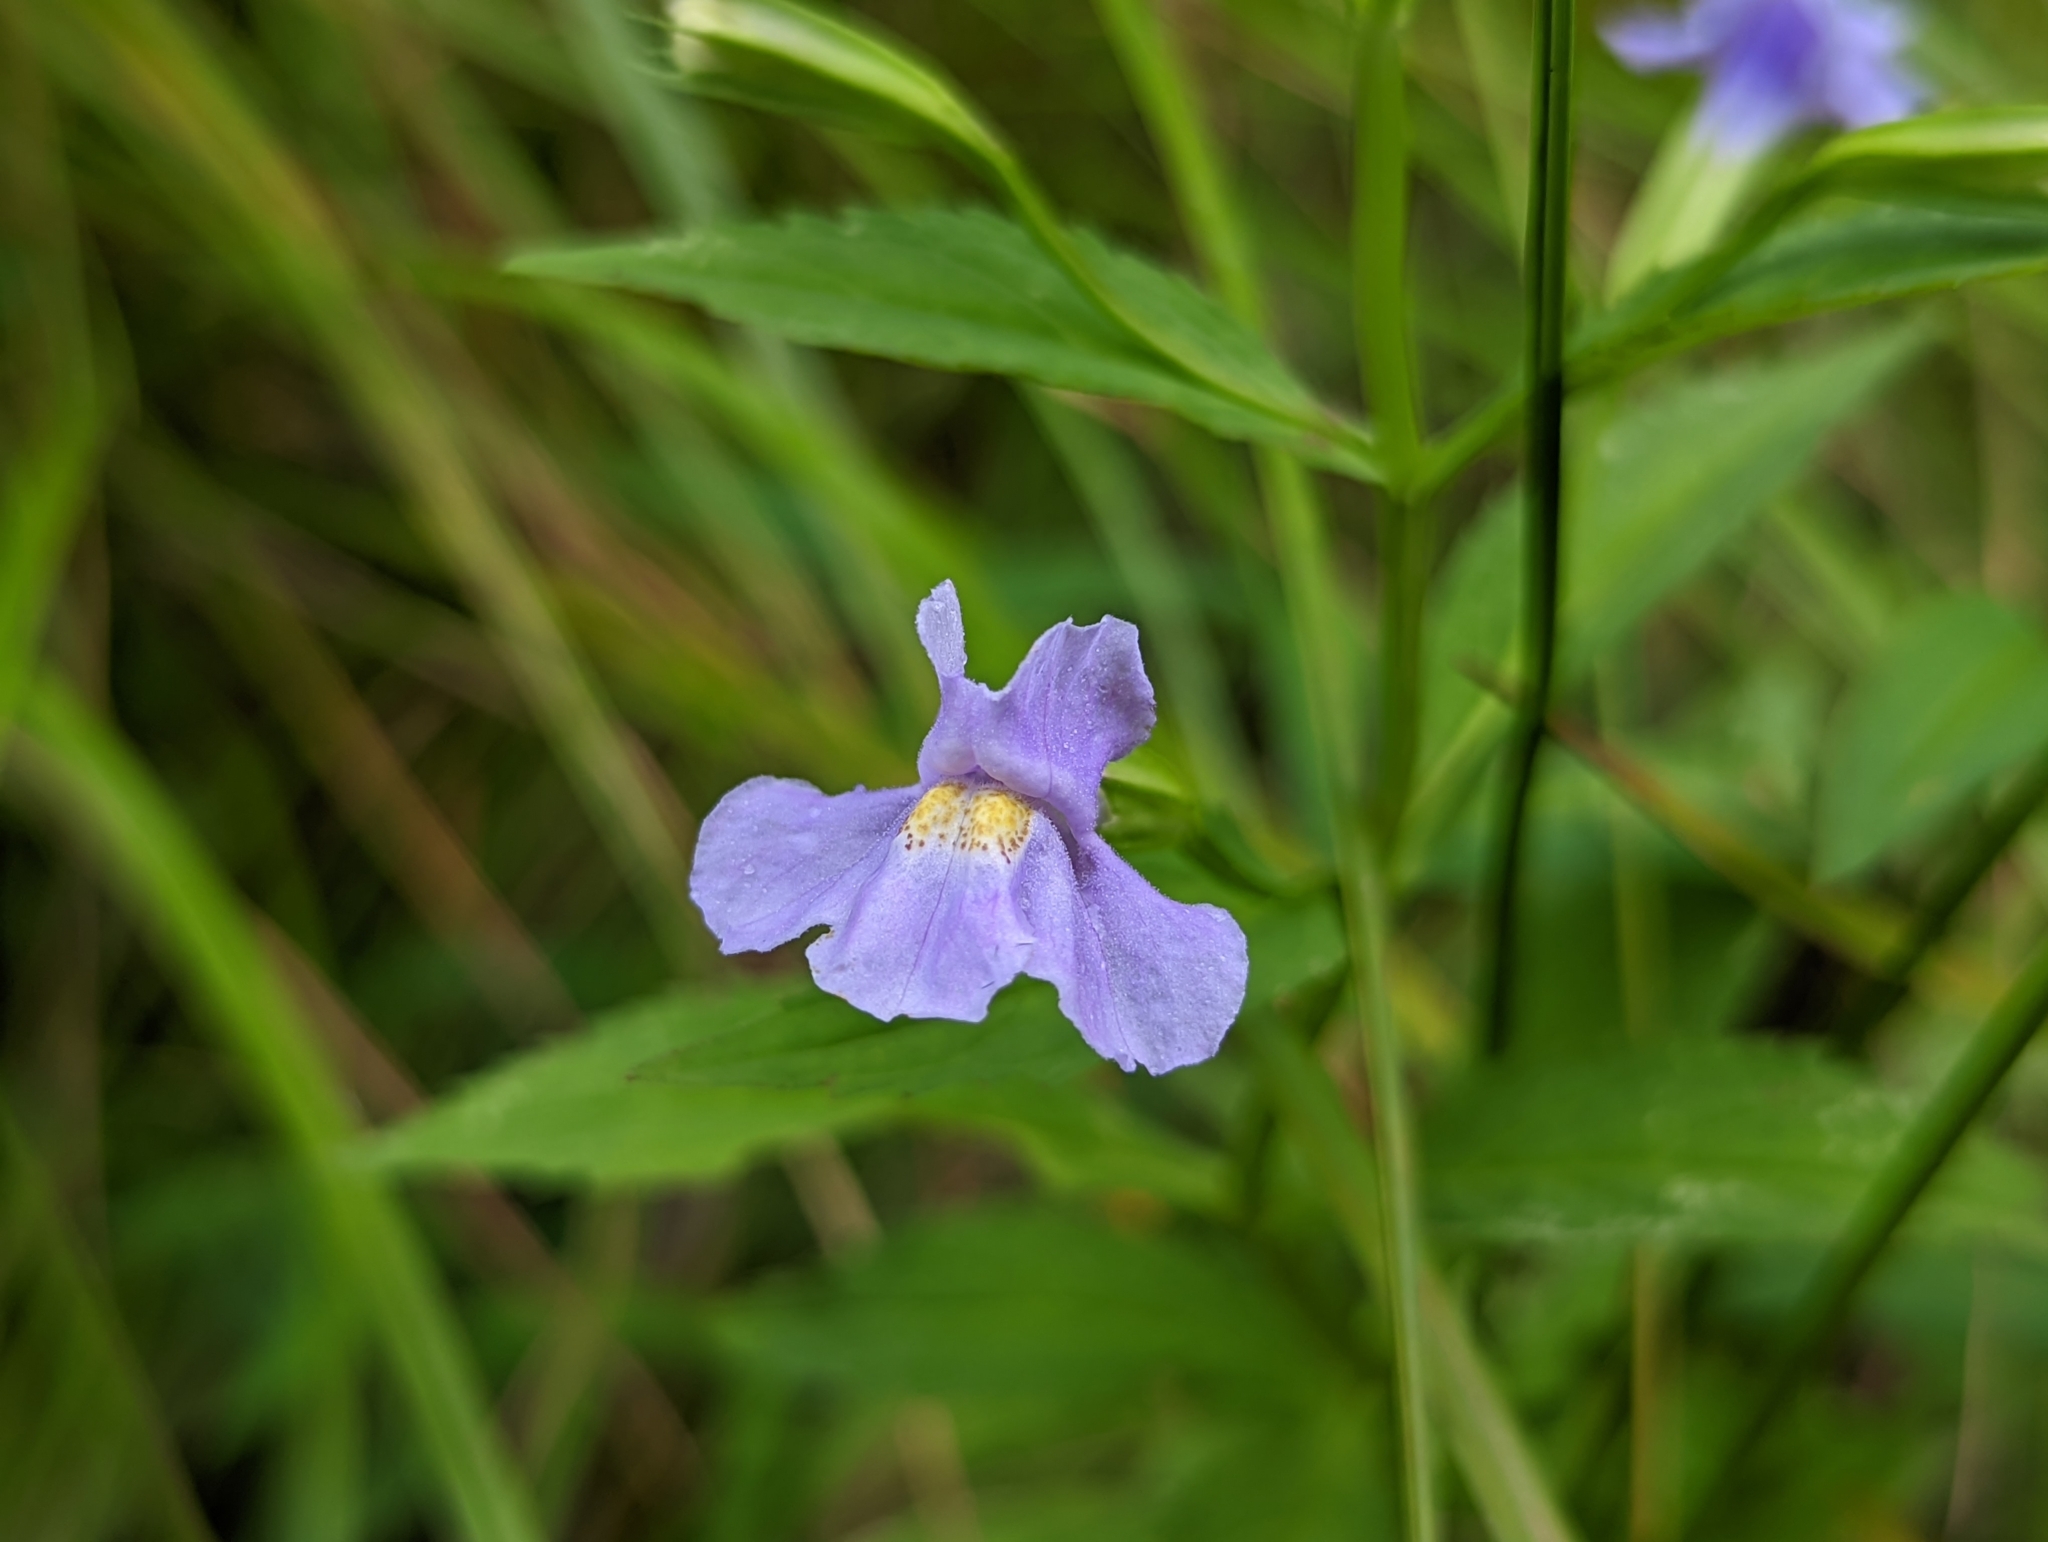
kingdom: Plantae
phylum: Tracheophyta
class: Magnoliopsida
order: Lamiales
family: Phrymaceae
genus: Mimulus
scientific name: Mimulus ringens
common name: Allegheny monkeyflower
